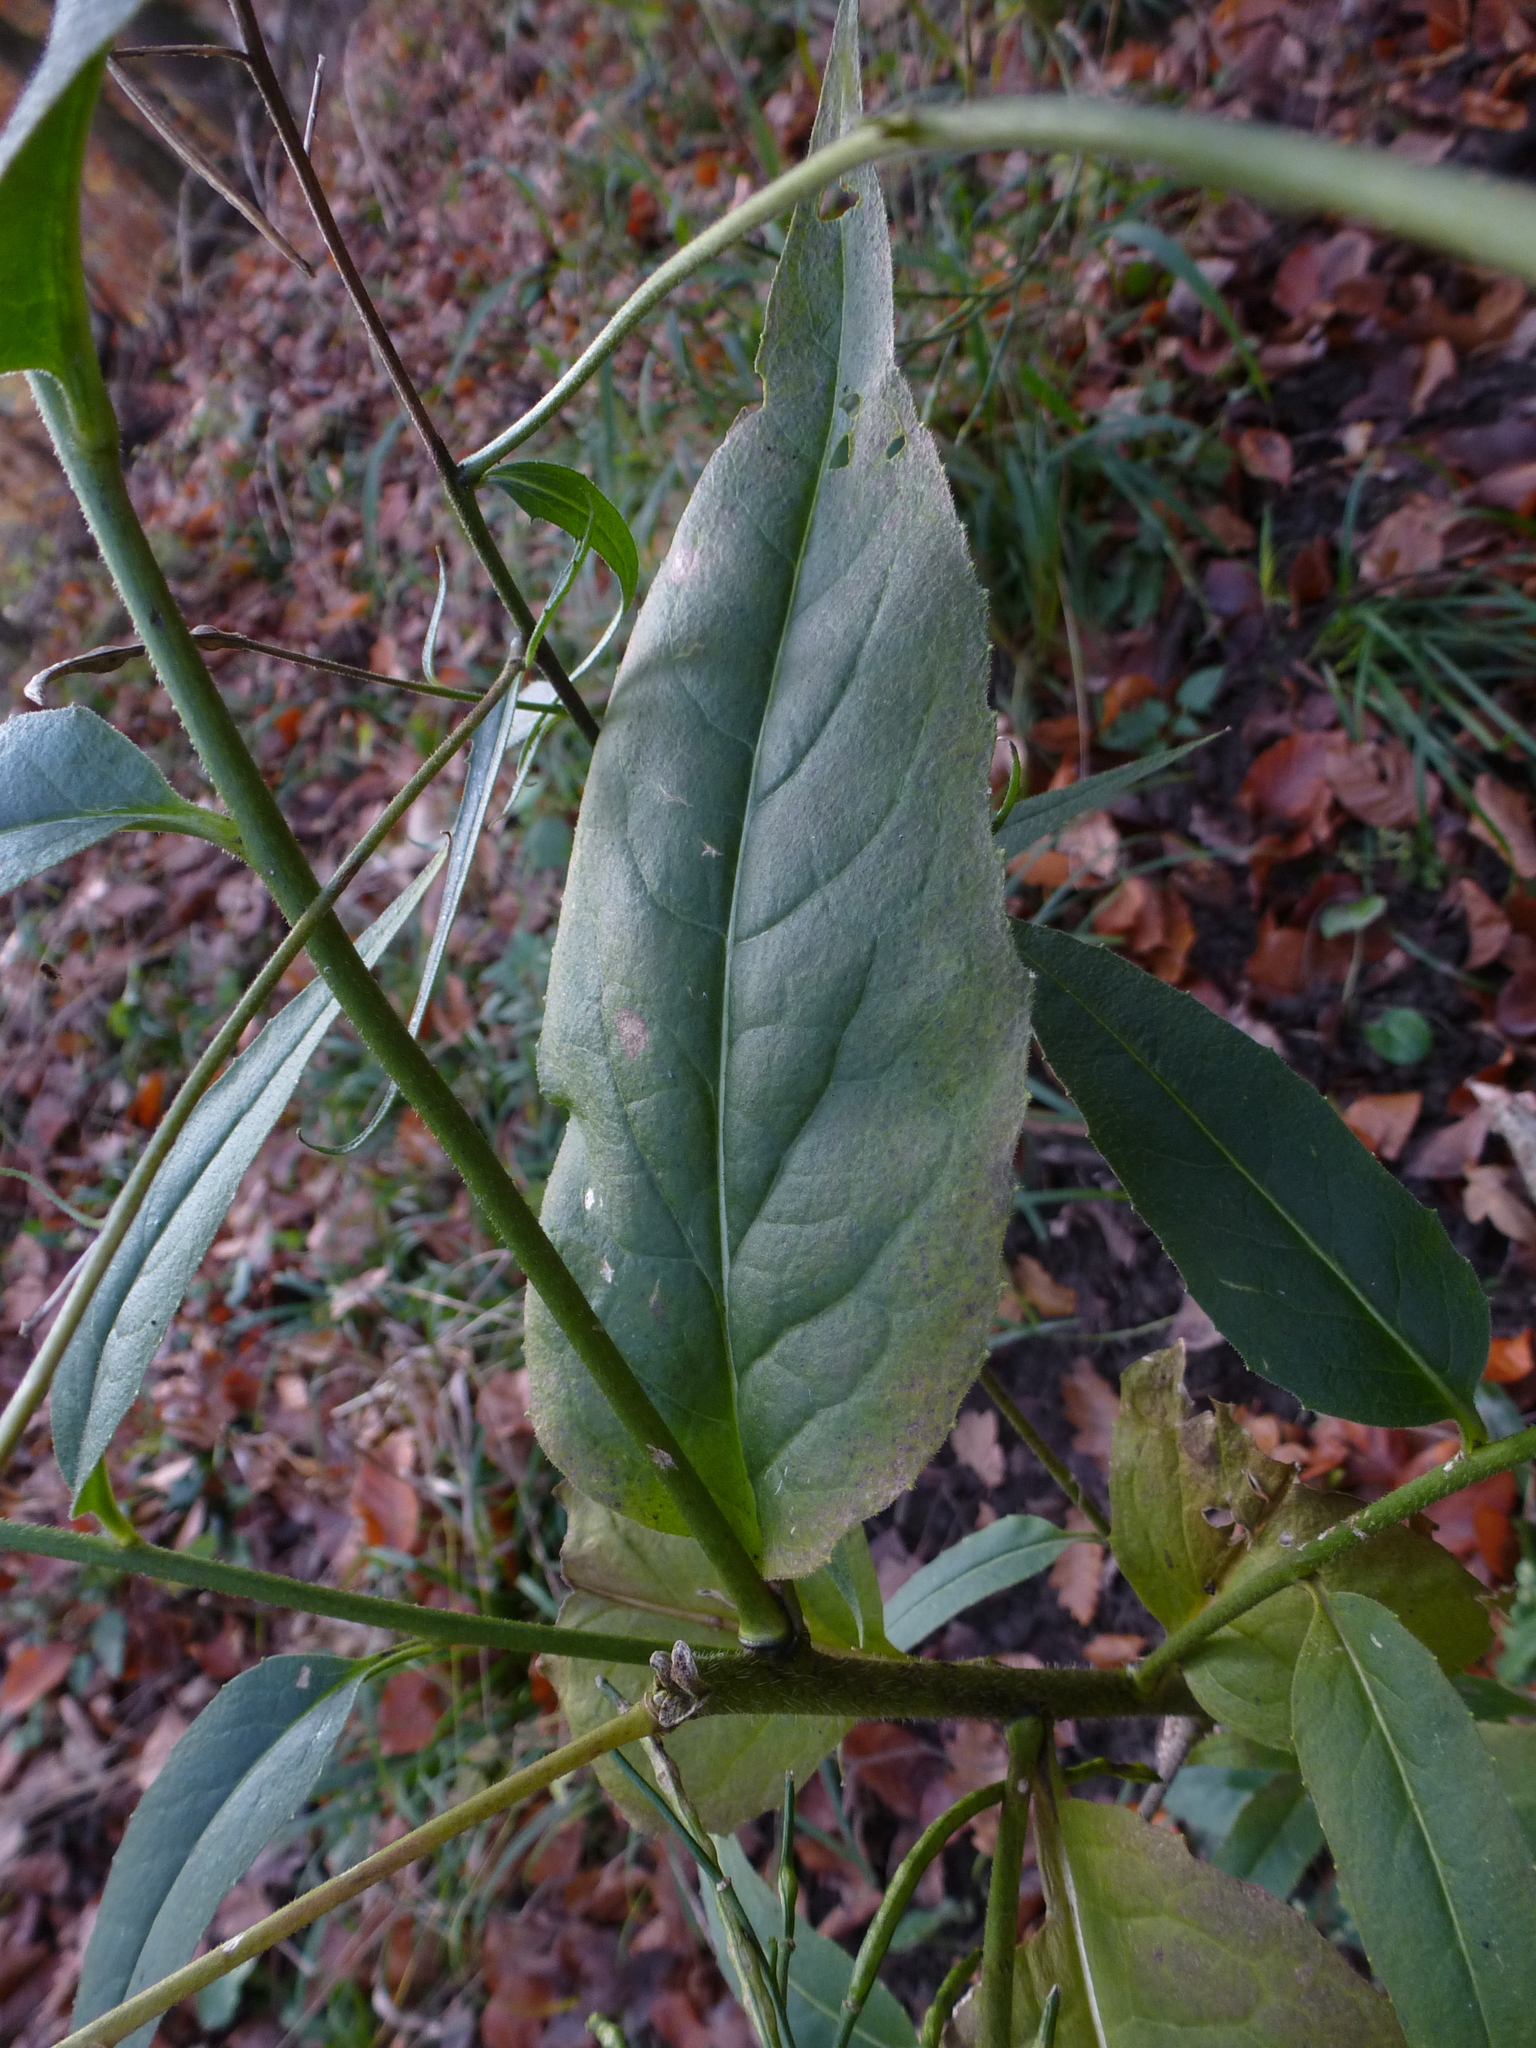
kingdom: Plantae
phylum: Tracheophyta
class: Magnoliopsida
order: Brassicales
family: Brassicaceae
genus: Hesperis
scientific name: Hesperis matronalis
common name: Dame's-violet
